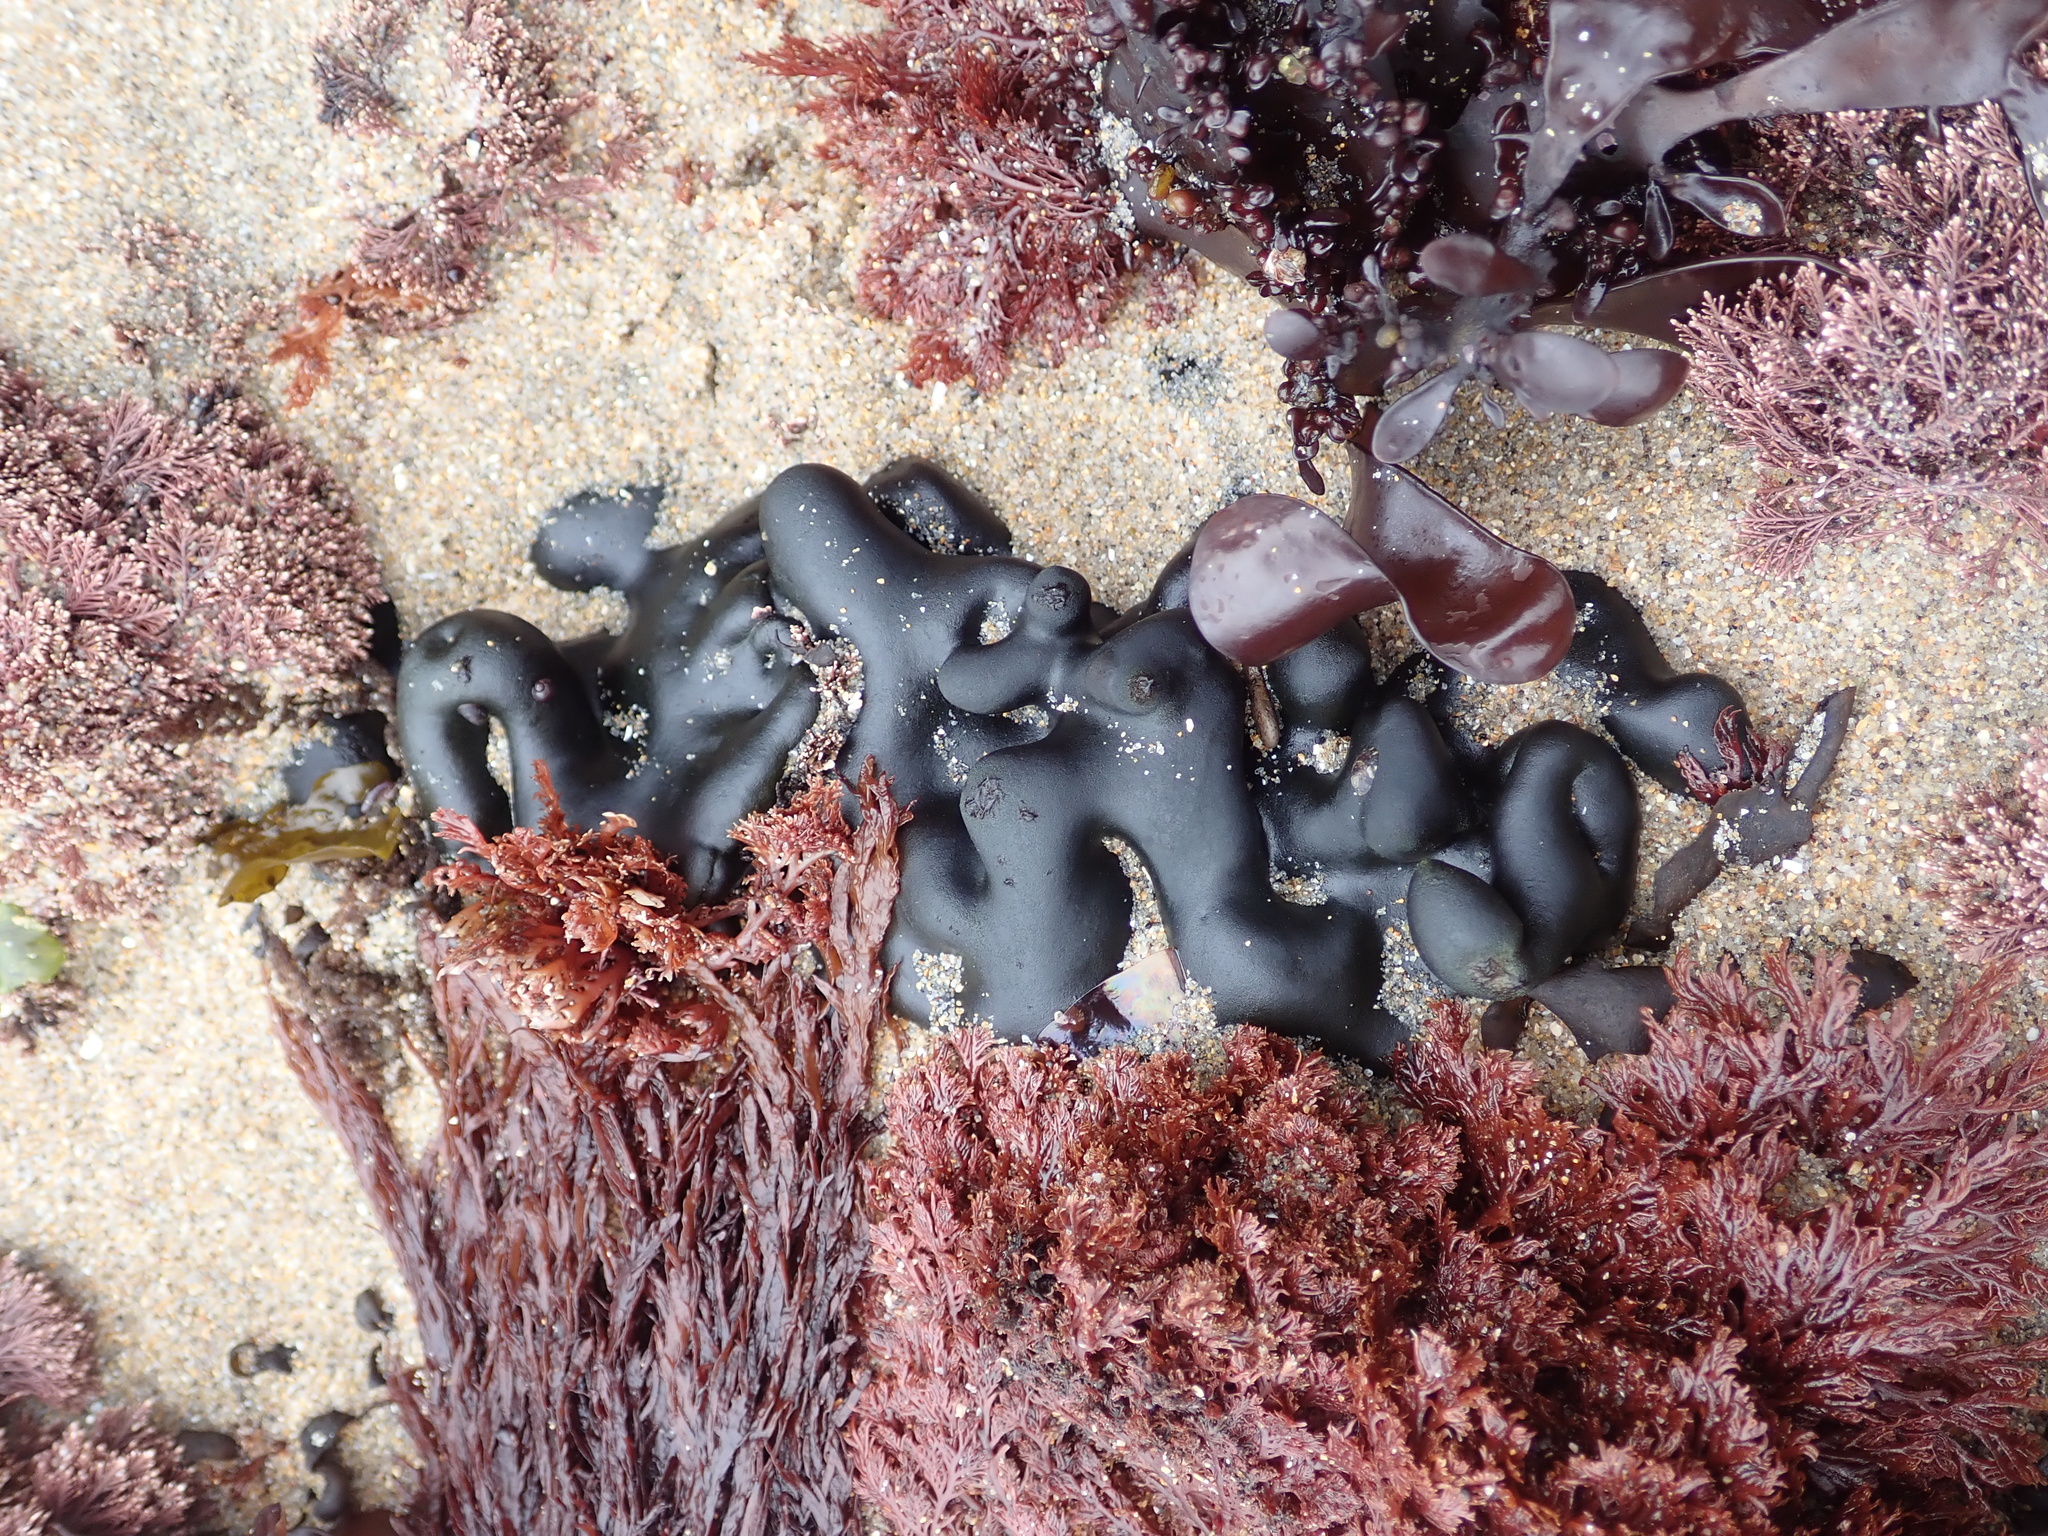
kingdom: Plantae
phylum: Chlorophyta
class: Ulvophyceae
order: Bryopsidales
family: Codiaceae
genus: Codium
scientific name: Codium setchellii
